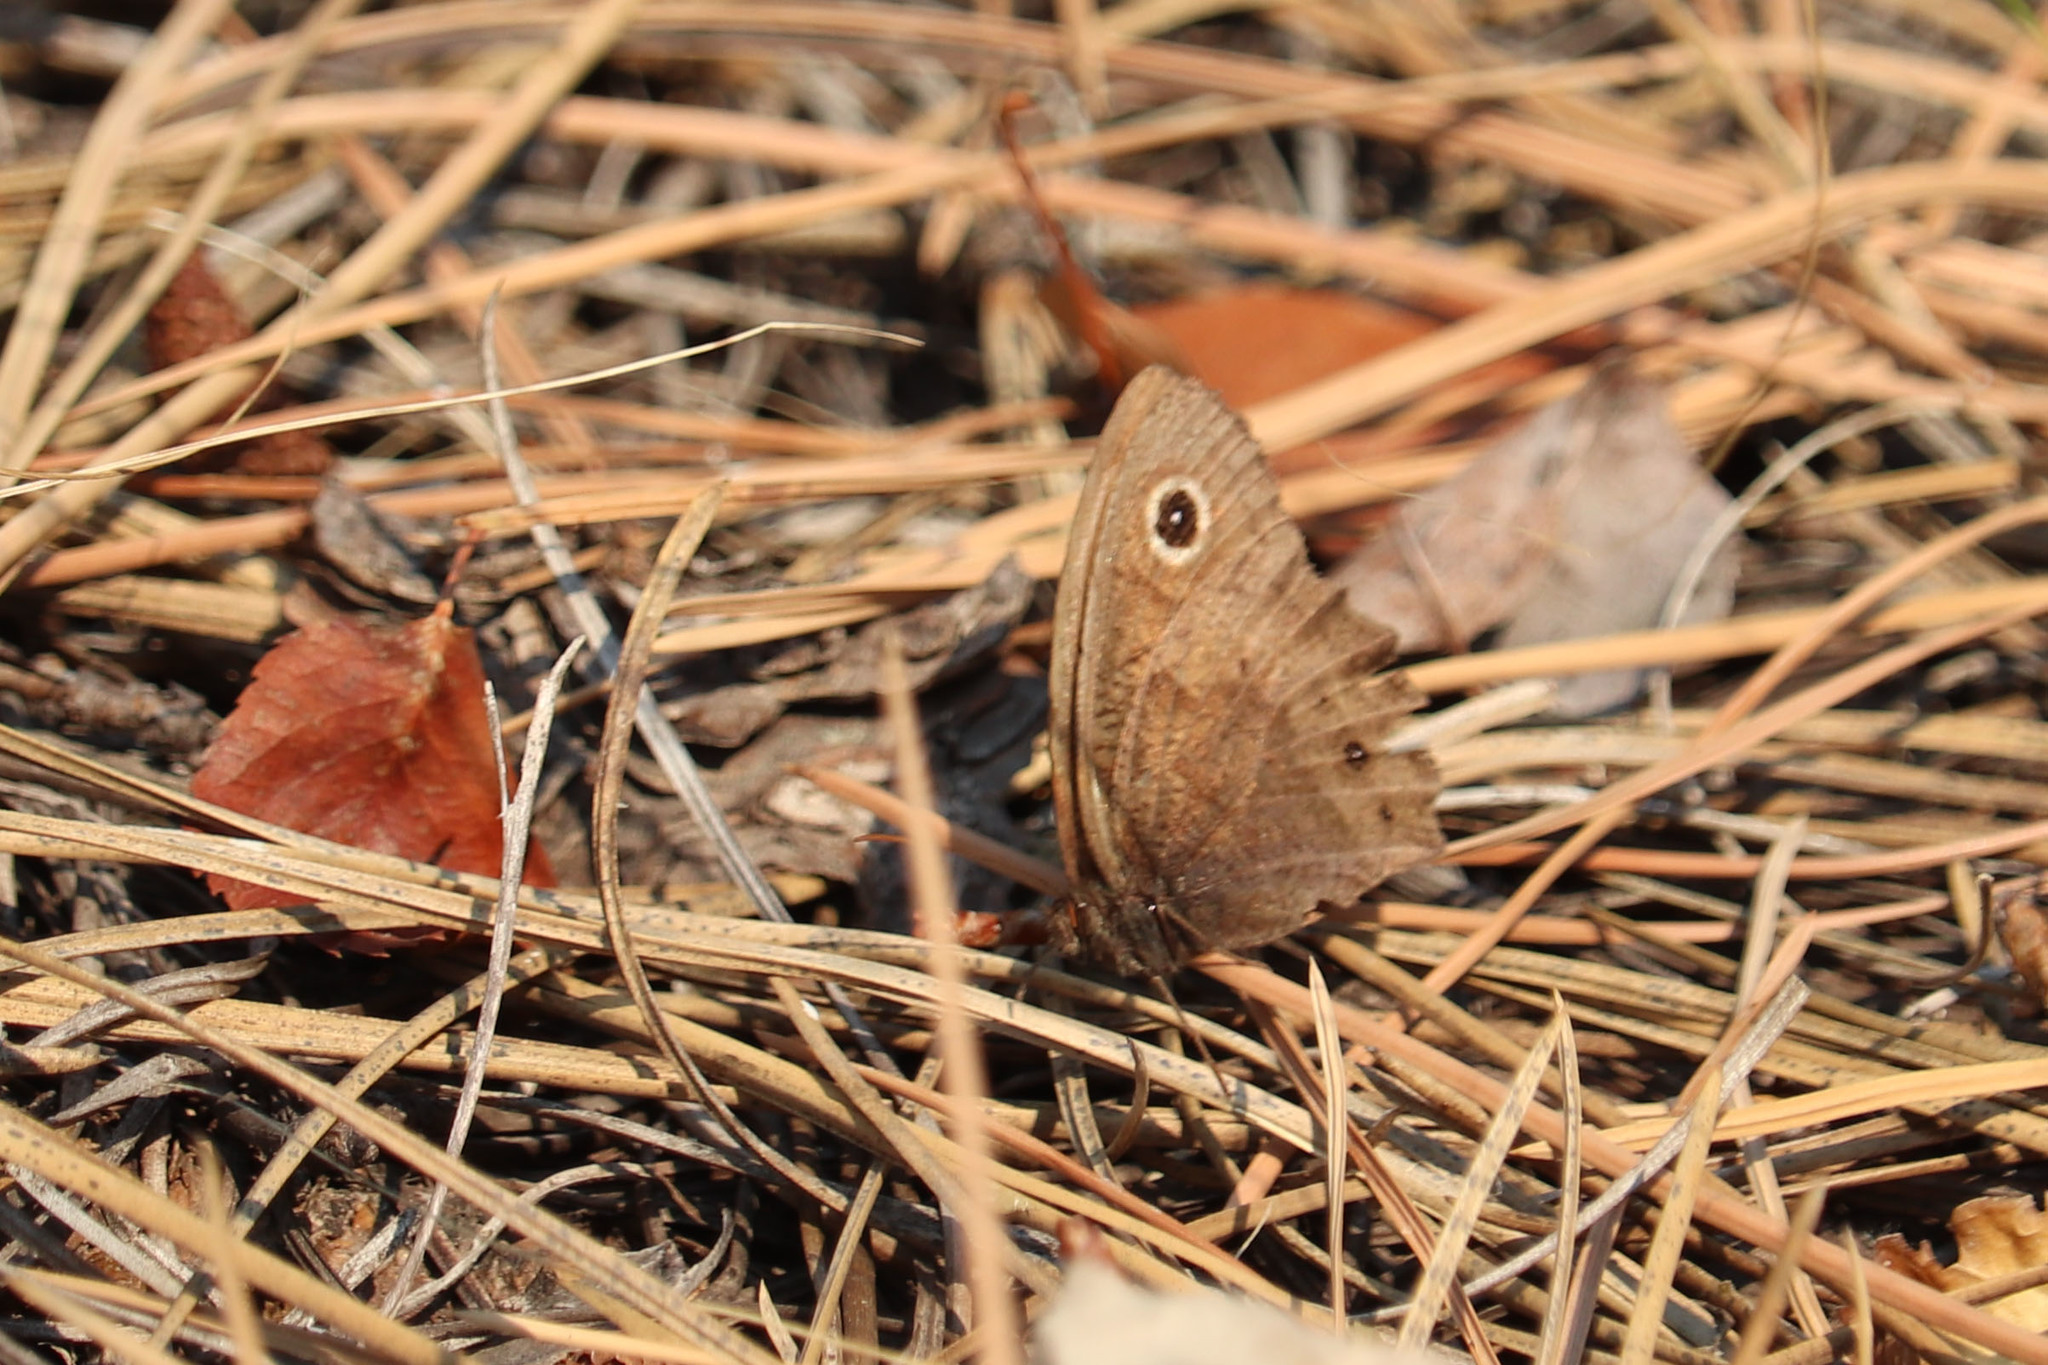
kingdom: Animalia
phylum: Arthropoda
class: Insecta
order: Lepidoptera
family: Nymphalidae
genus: Cercyonis
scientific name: Cercyonis pegala
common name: Common wood-nymph
